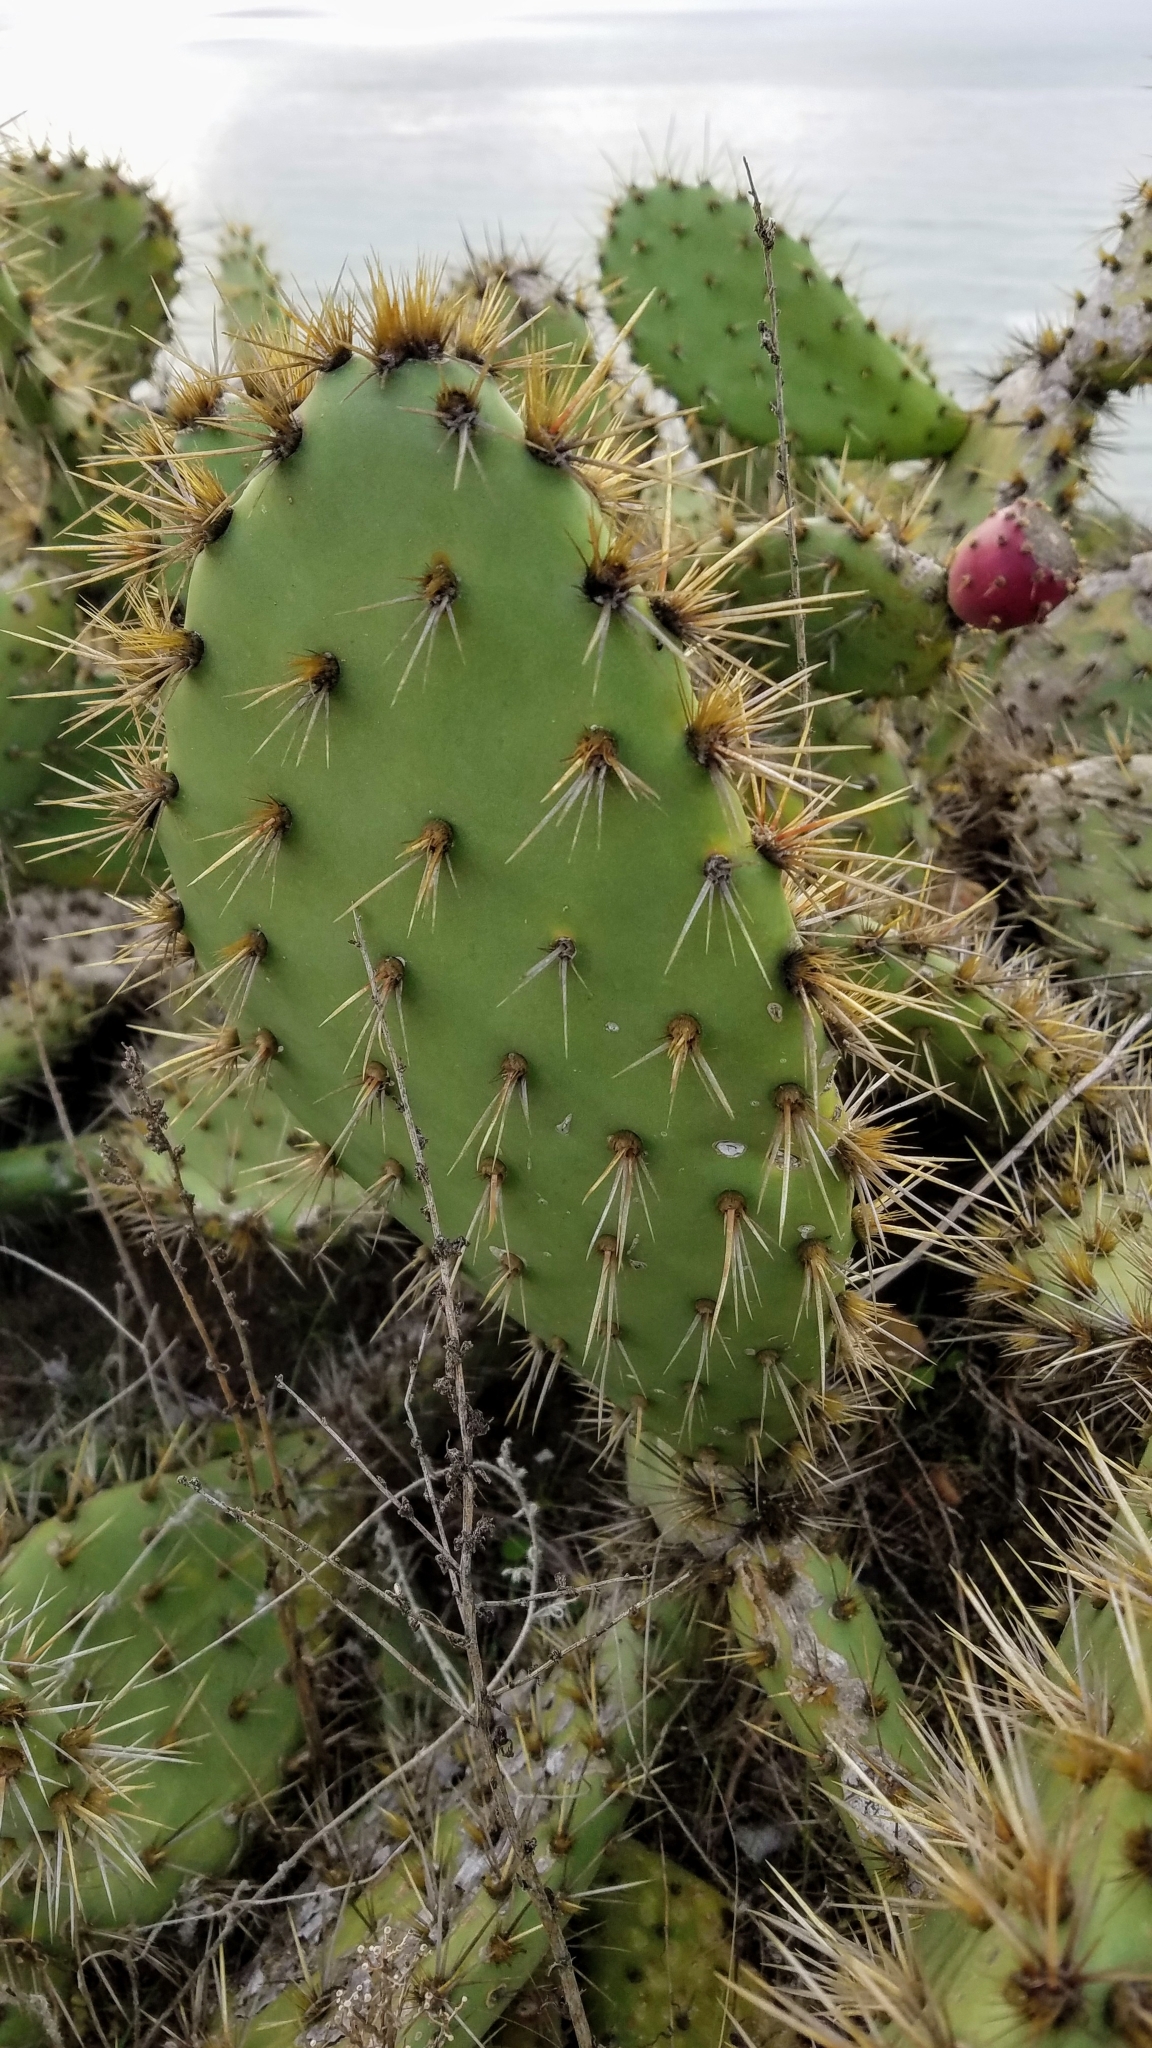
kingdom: Plantae
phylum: Tracheophyta
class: Magnoliopsida
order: Caryophyllales
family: Cactaceae
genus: Opuntia
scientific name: Opuntia littoralis
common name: Coastal prickly-pear
